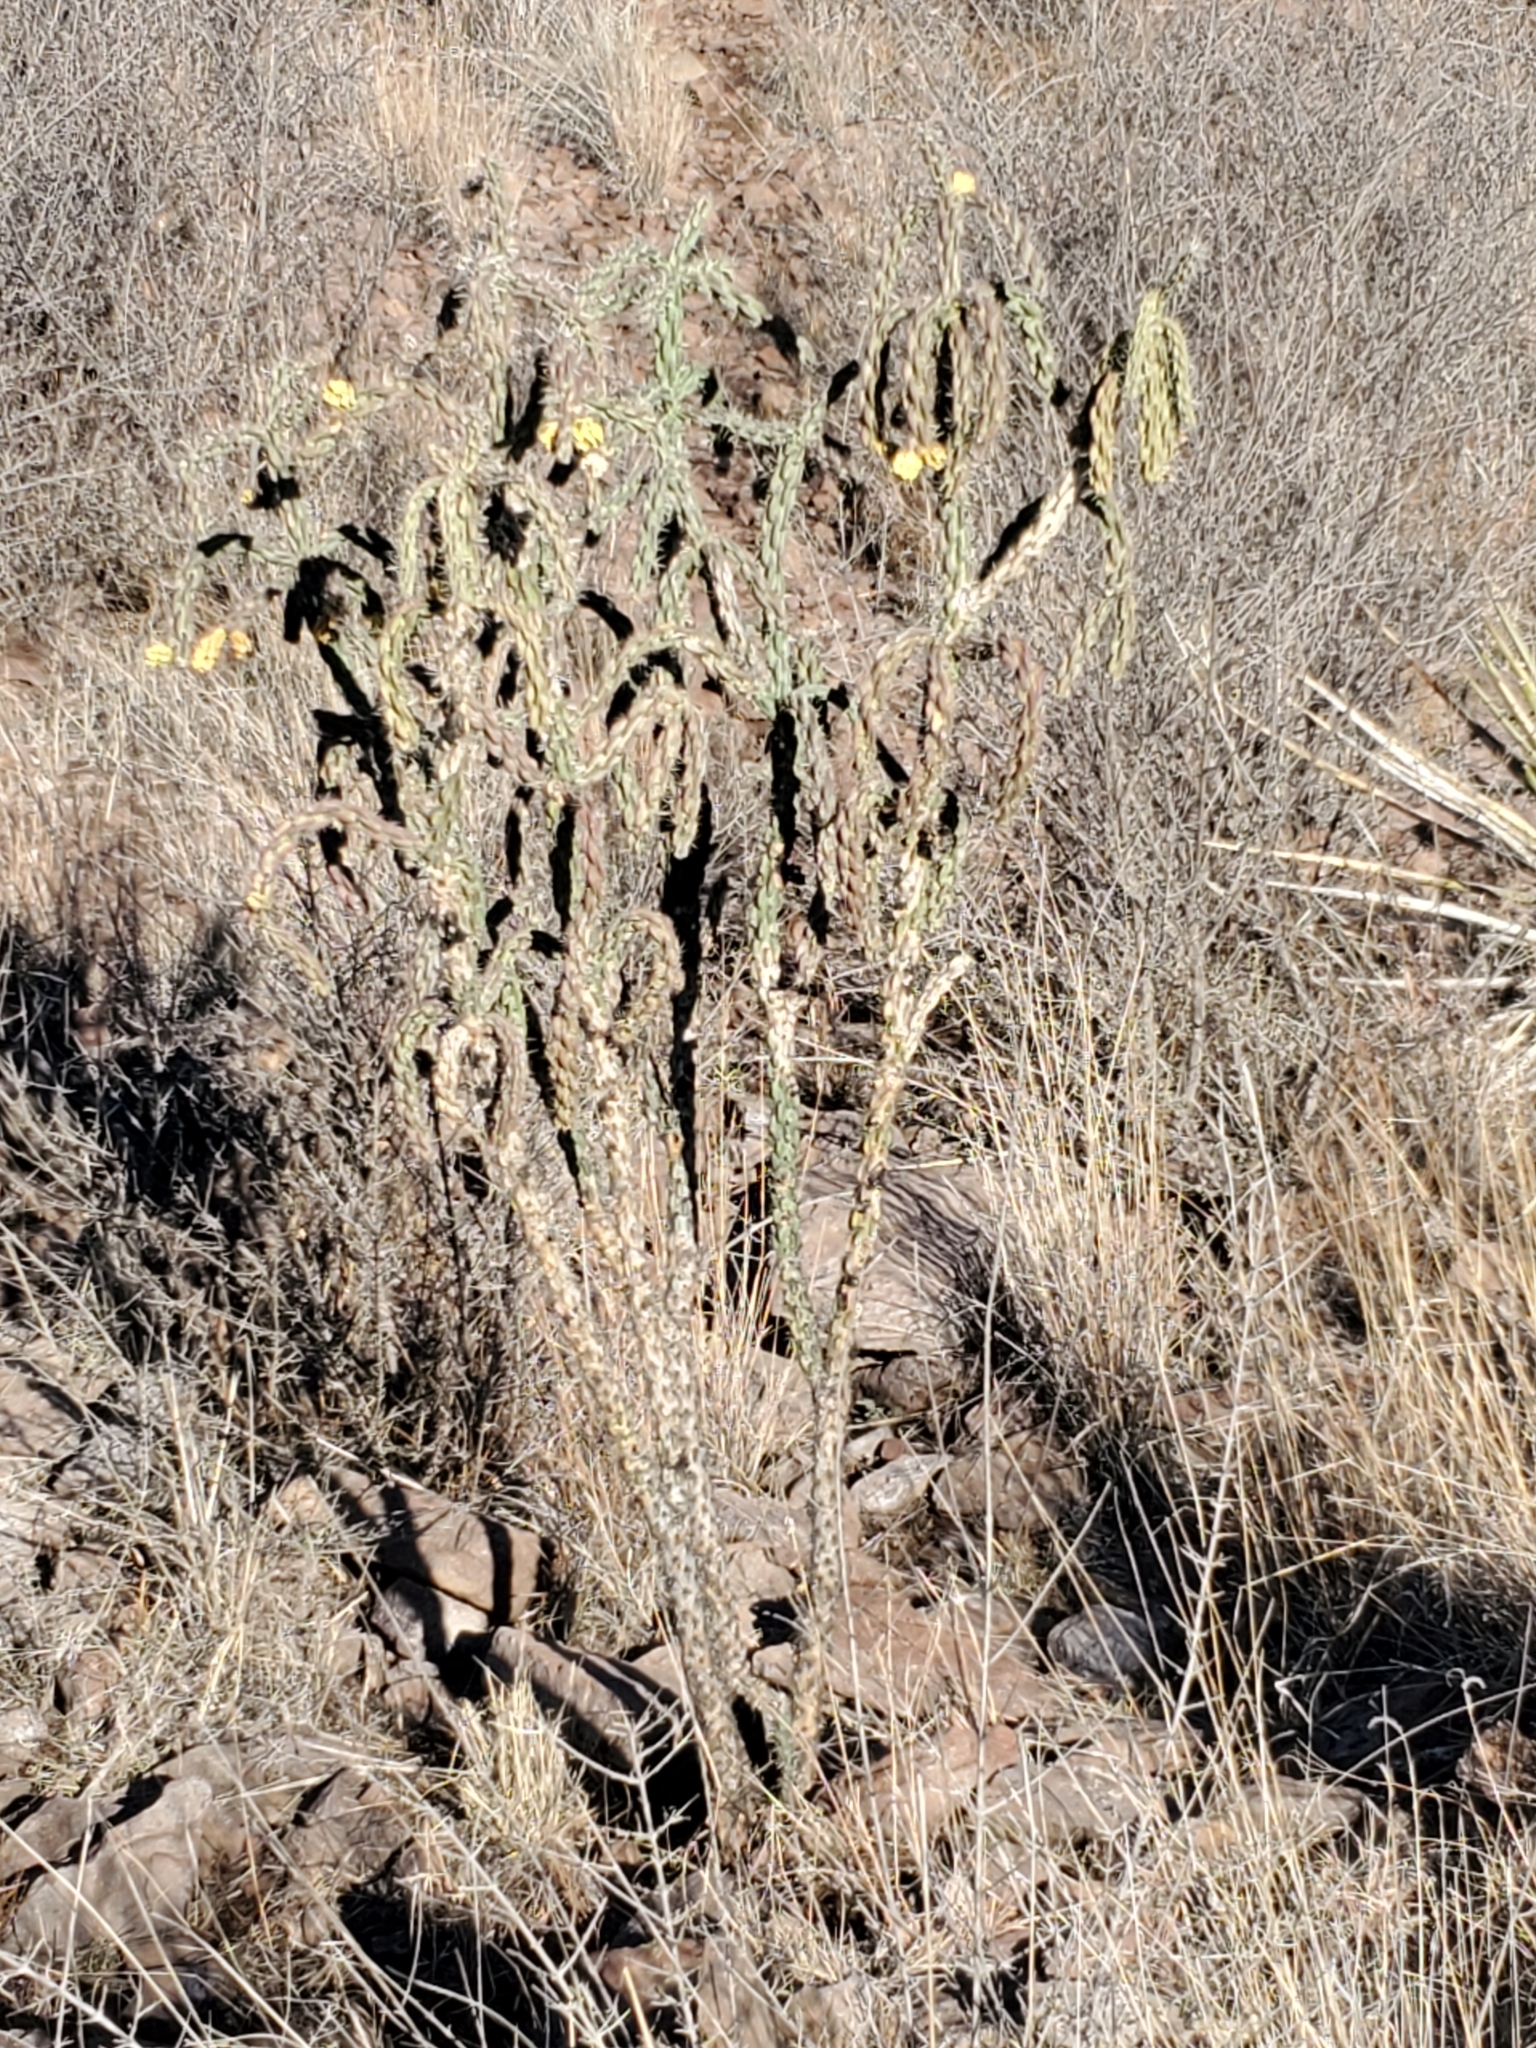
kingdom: Plantae
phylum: Tracheophyta
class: Magnoliopsida
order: Caryophyllales
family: Cactaceae
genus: Cylindropuntia
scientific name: Cylindropuntia imbricata
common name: Candelabrum cactus
